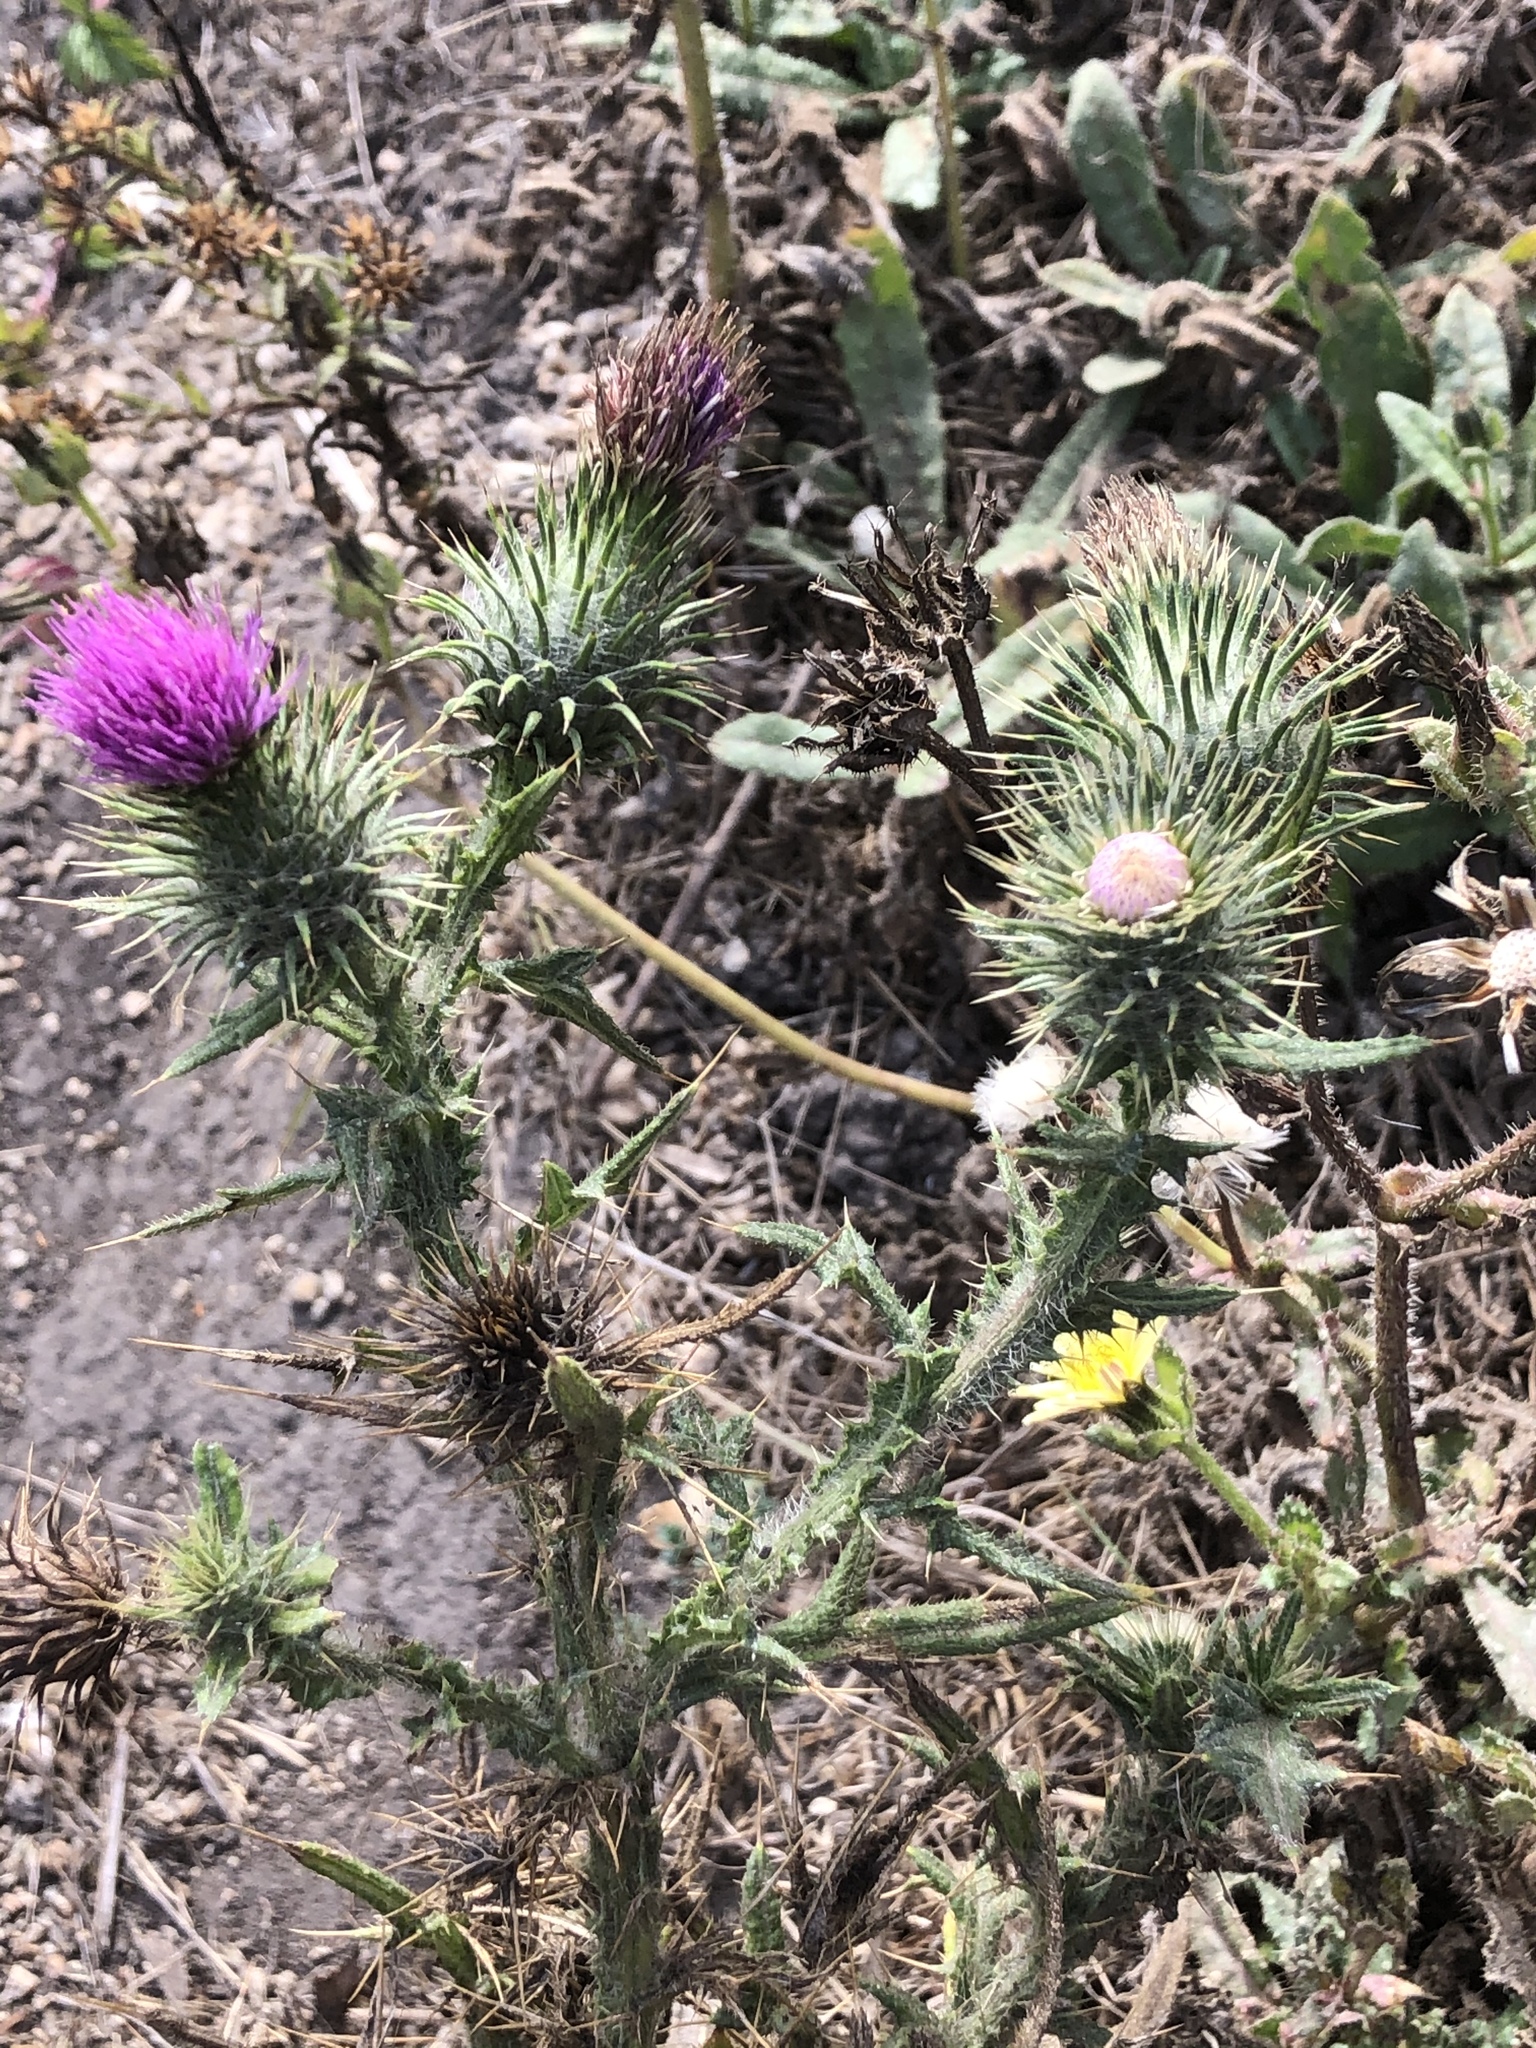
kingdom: Plantae
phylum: Tracheophyta
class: Magnoliopsida
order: Asterales
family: Asteraceae
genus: Cirsium
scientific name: Cirsium vulgare
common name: Bull thistle
